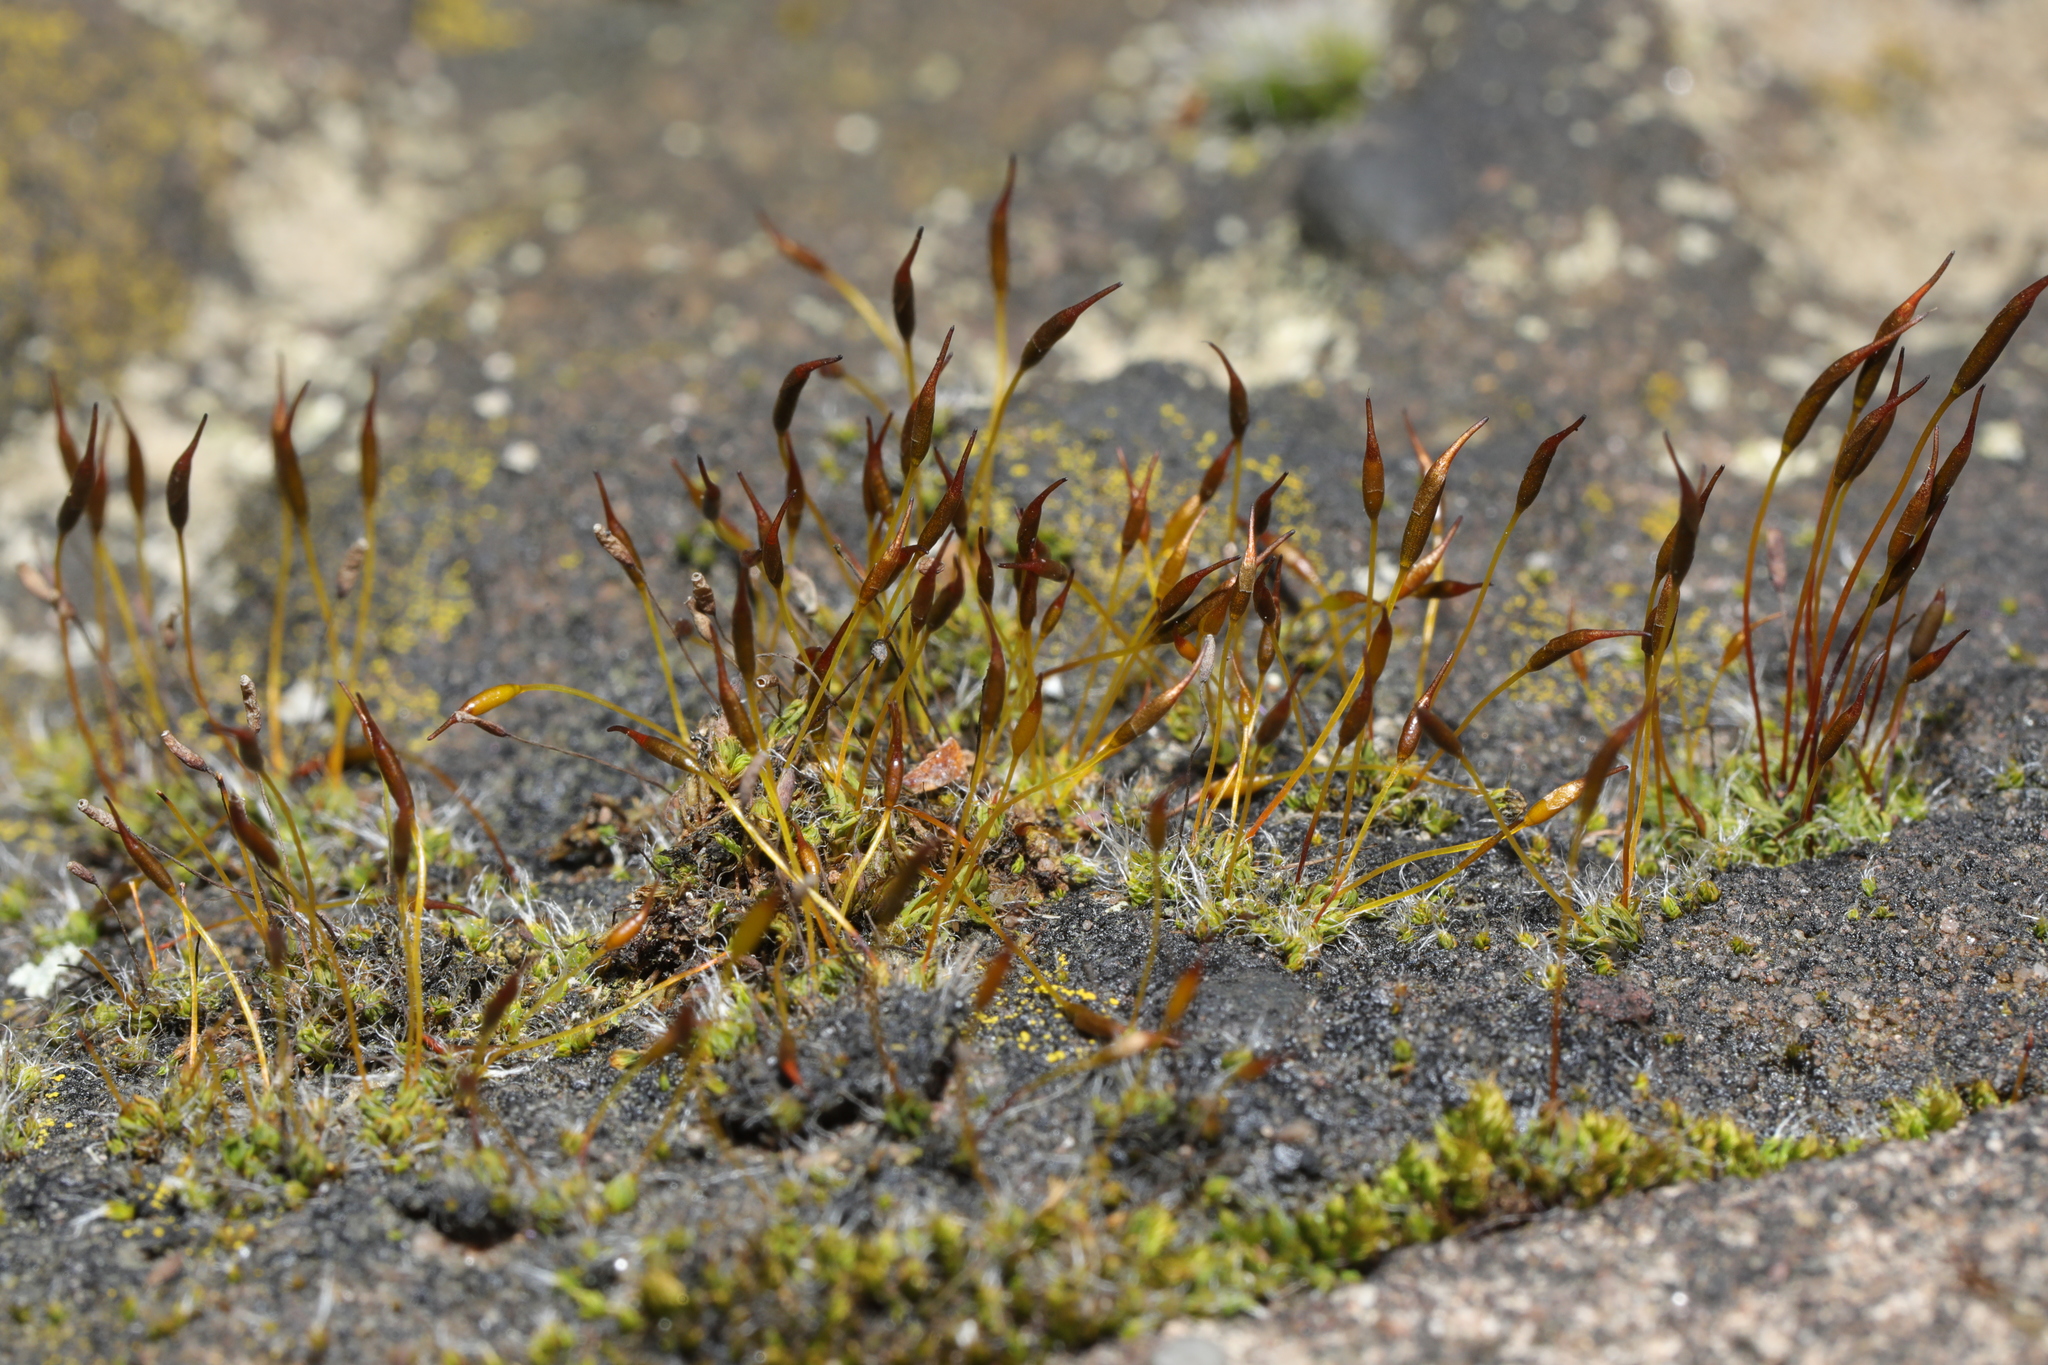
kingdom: Plantae
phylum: Bryophyta
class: Bryopsida
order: Pottiales
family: Pottiaceae
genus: Tortula
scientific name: Tortula muralis
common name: Wall screw-moss
